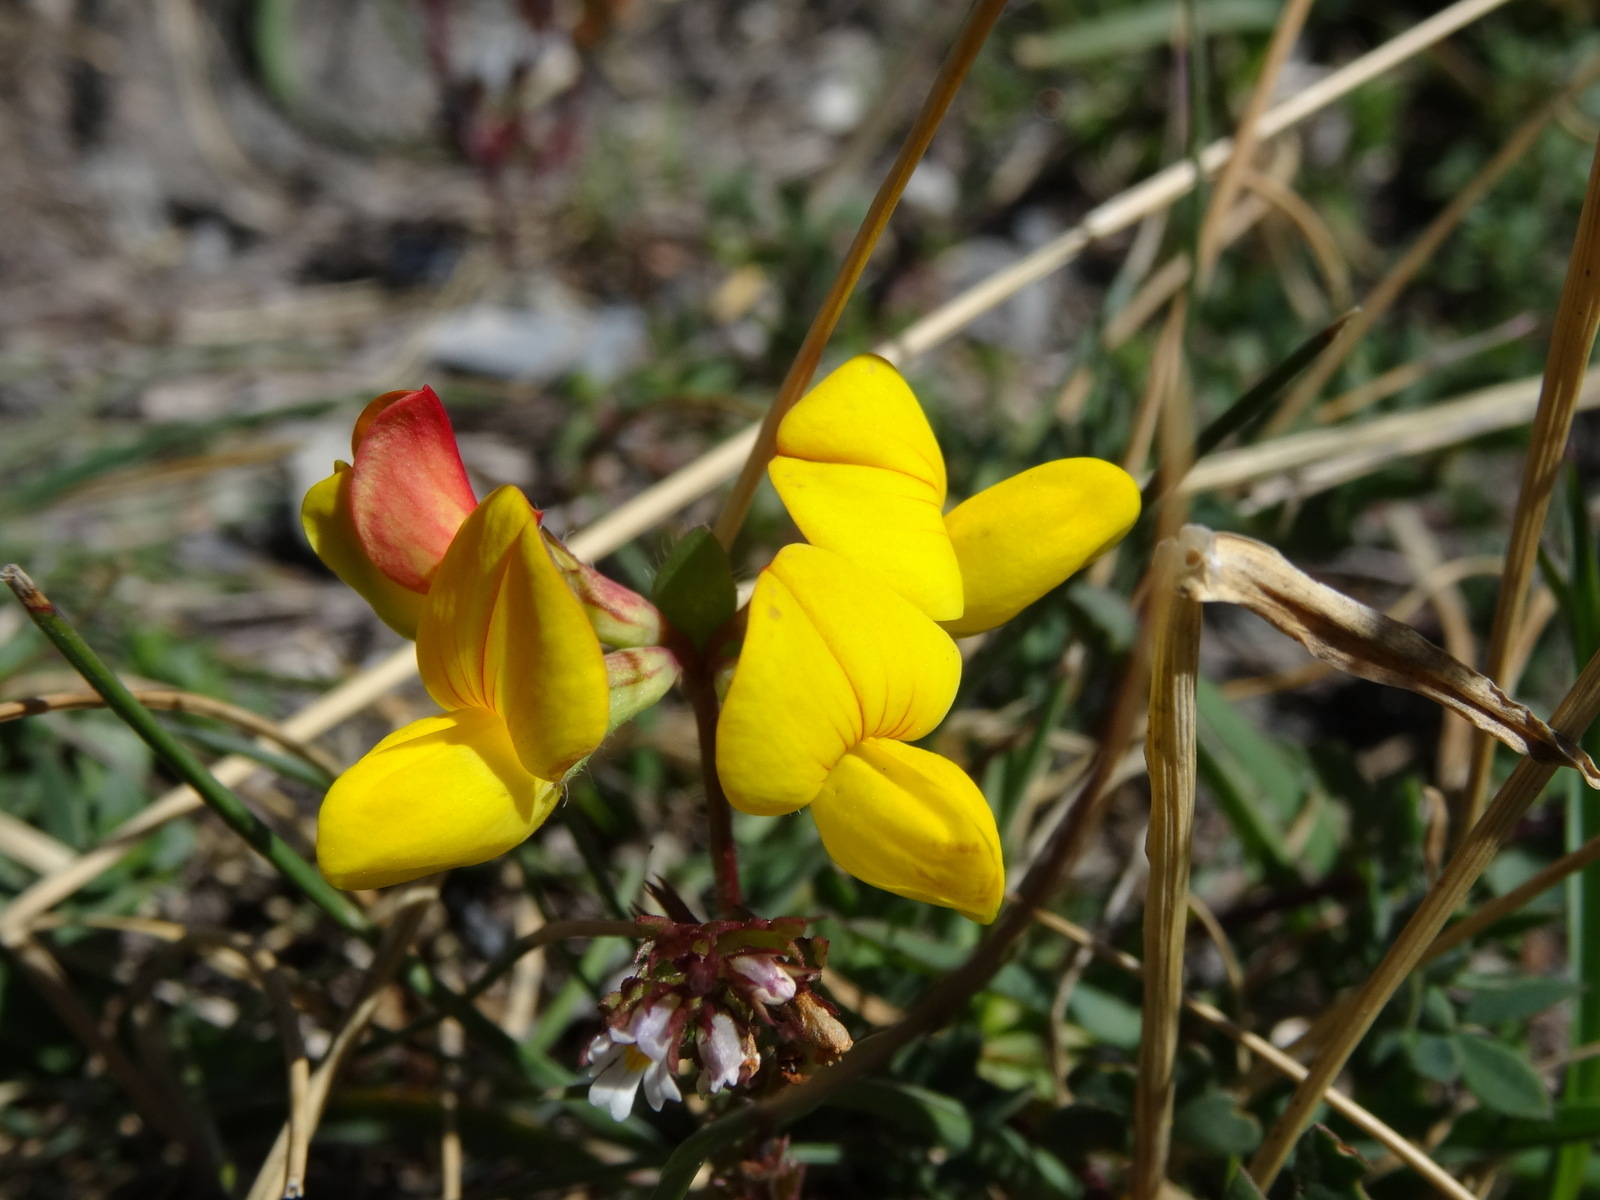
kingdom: Plantae
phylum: Tracheophyta
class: Magnoliopsida
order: Fabales
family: Fabaceae
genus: Lotus
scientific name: Lotus alpinus
